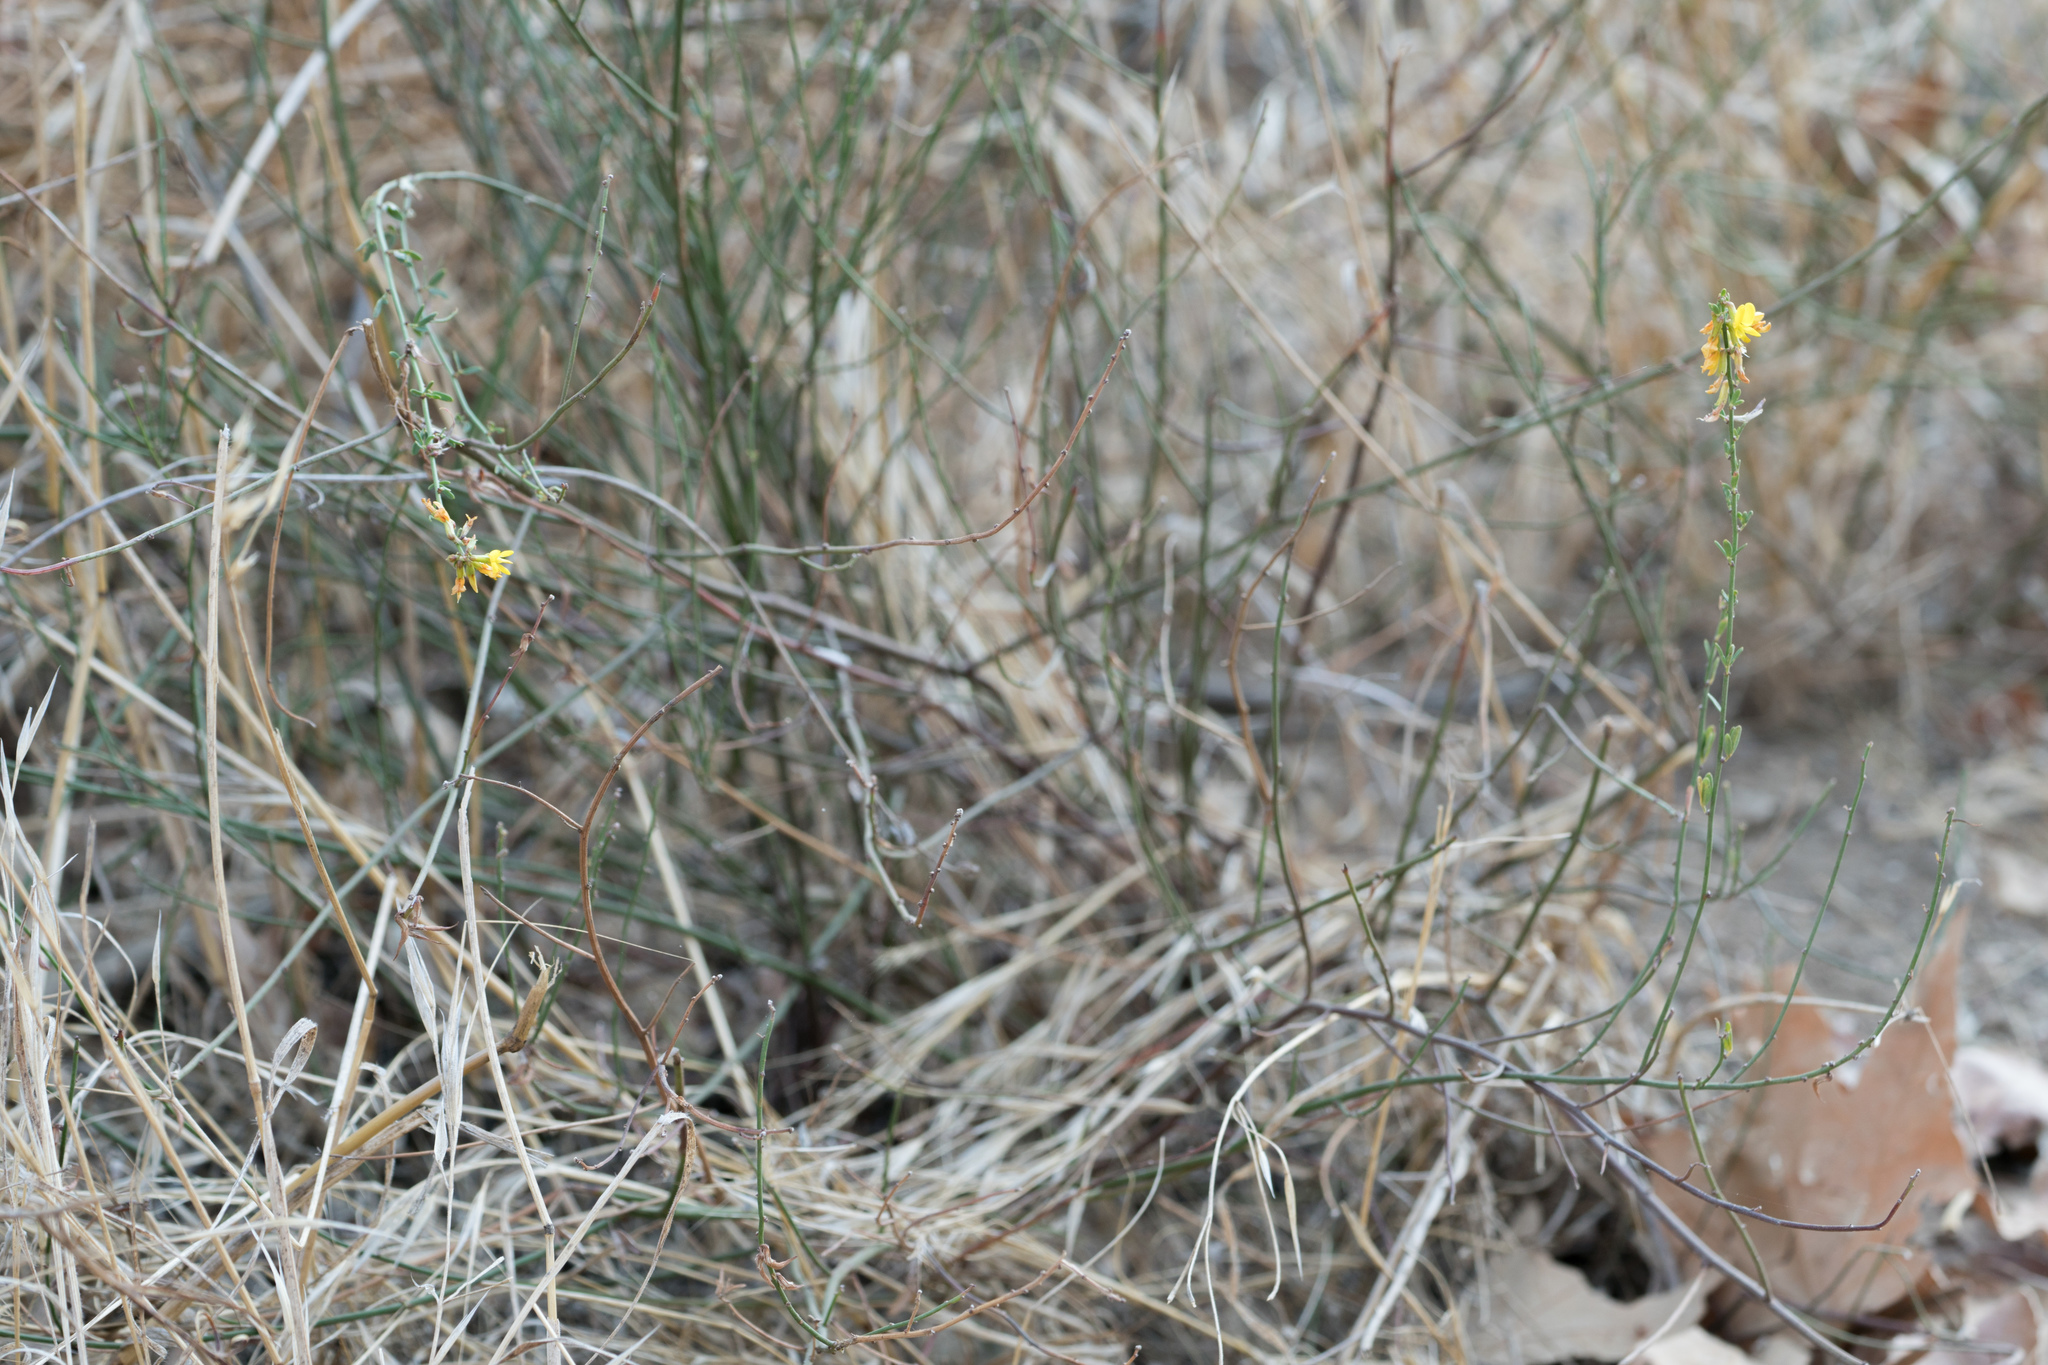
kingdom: Plantae
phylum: Tracheophyta
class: Magnoliopsida
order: Fabales
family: Fabaceae
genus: Acmispon
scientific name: Acmispon glaber
